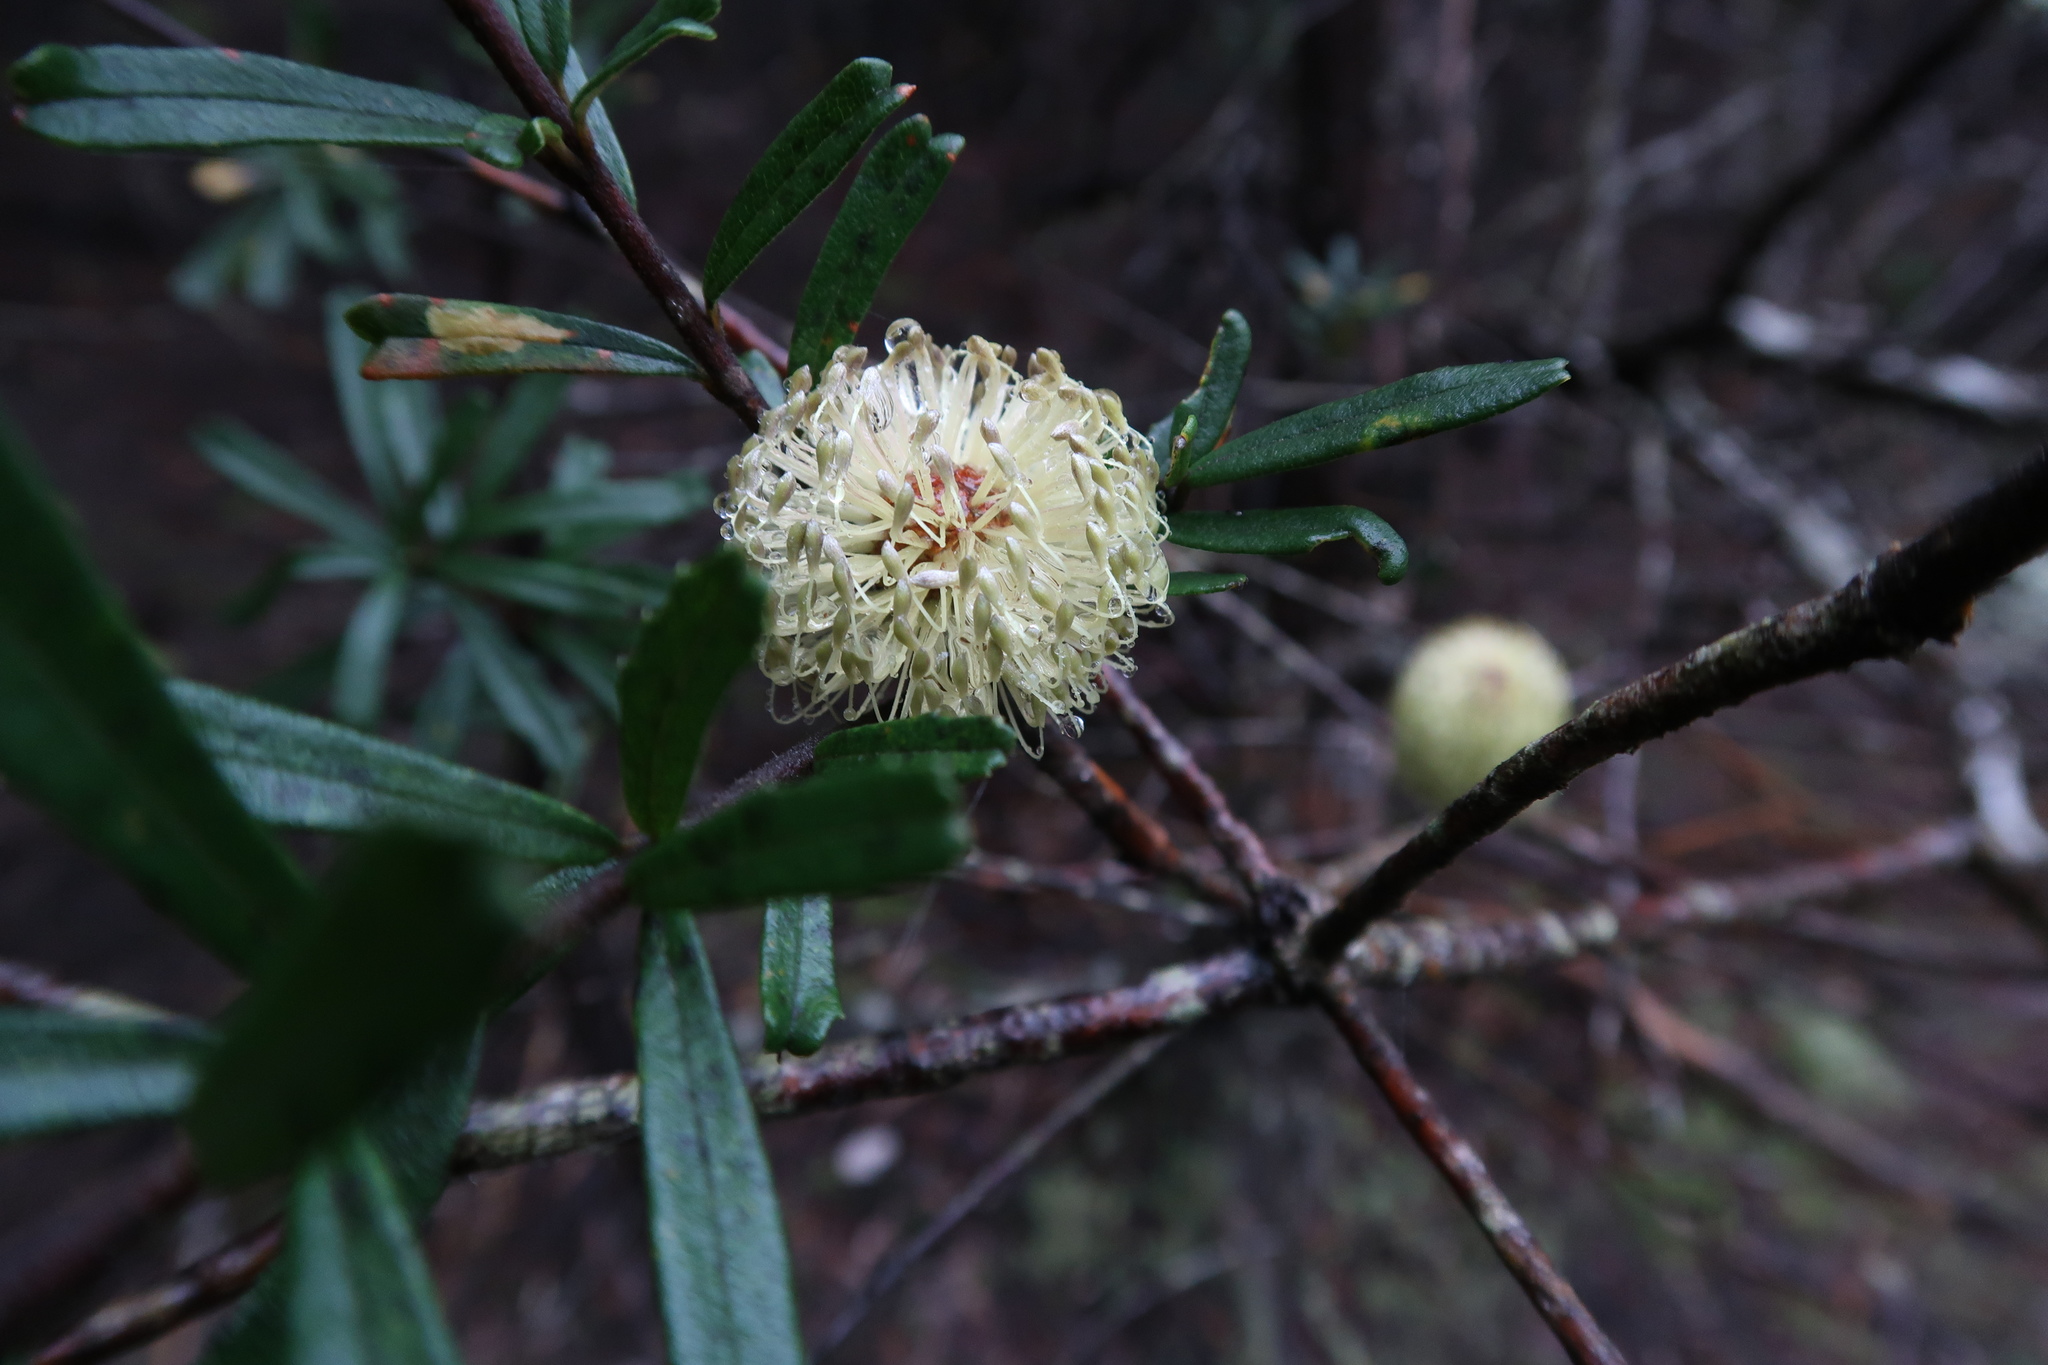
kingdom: Plantae
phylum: Tracheophyta
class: Magnoliopsida
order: Proteales
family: Proteaceae
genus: Banksia
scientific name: Banksia marginata
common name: Silver banksia
